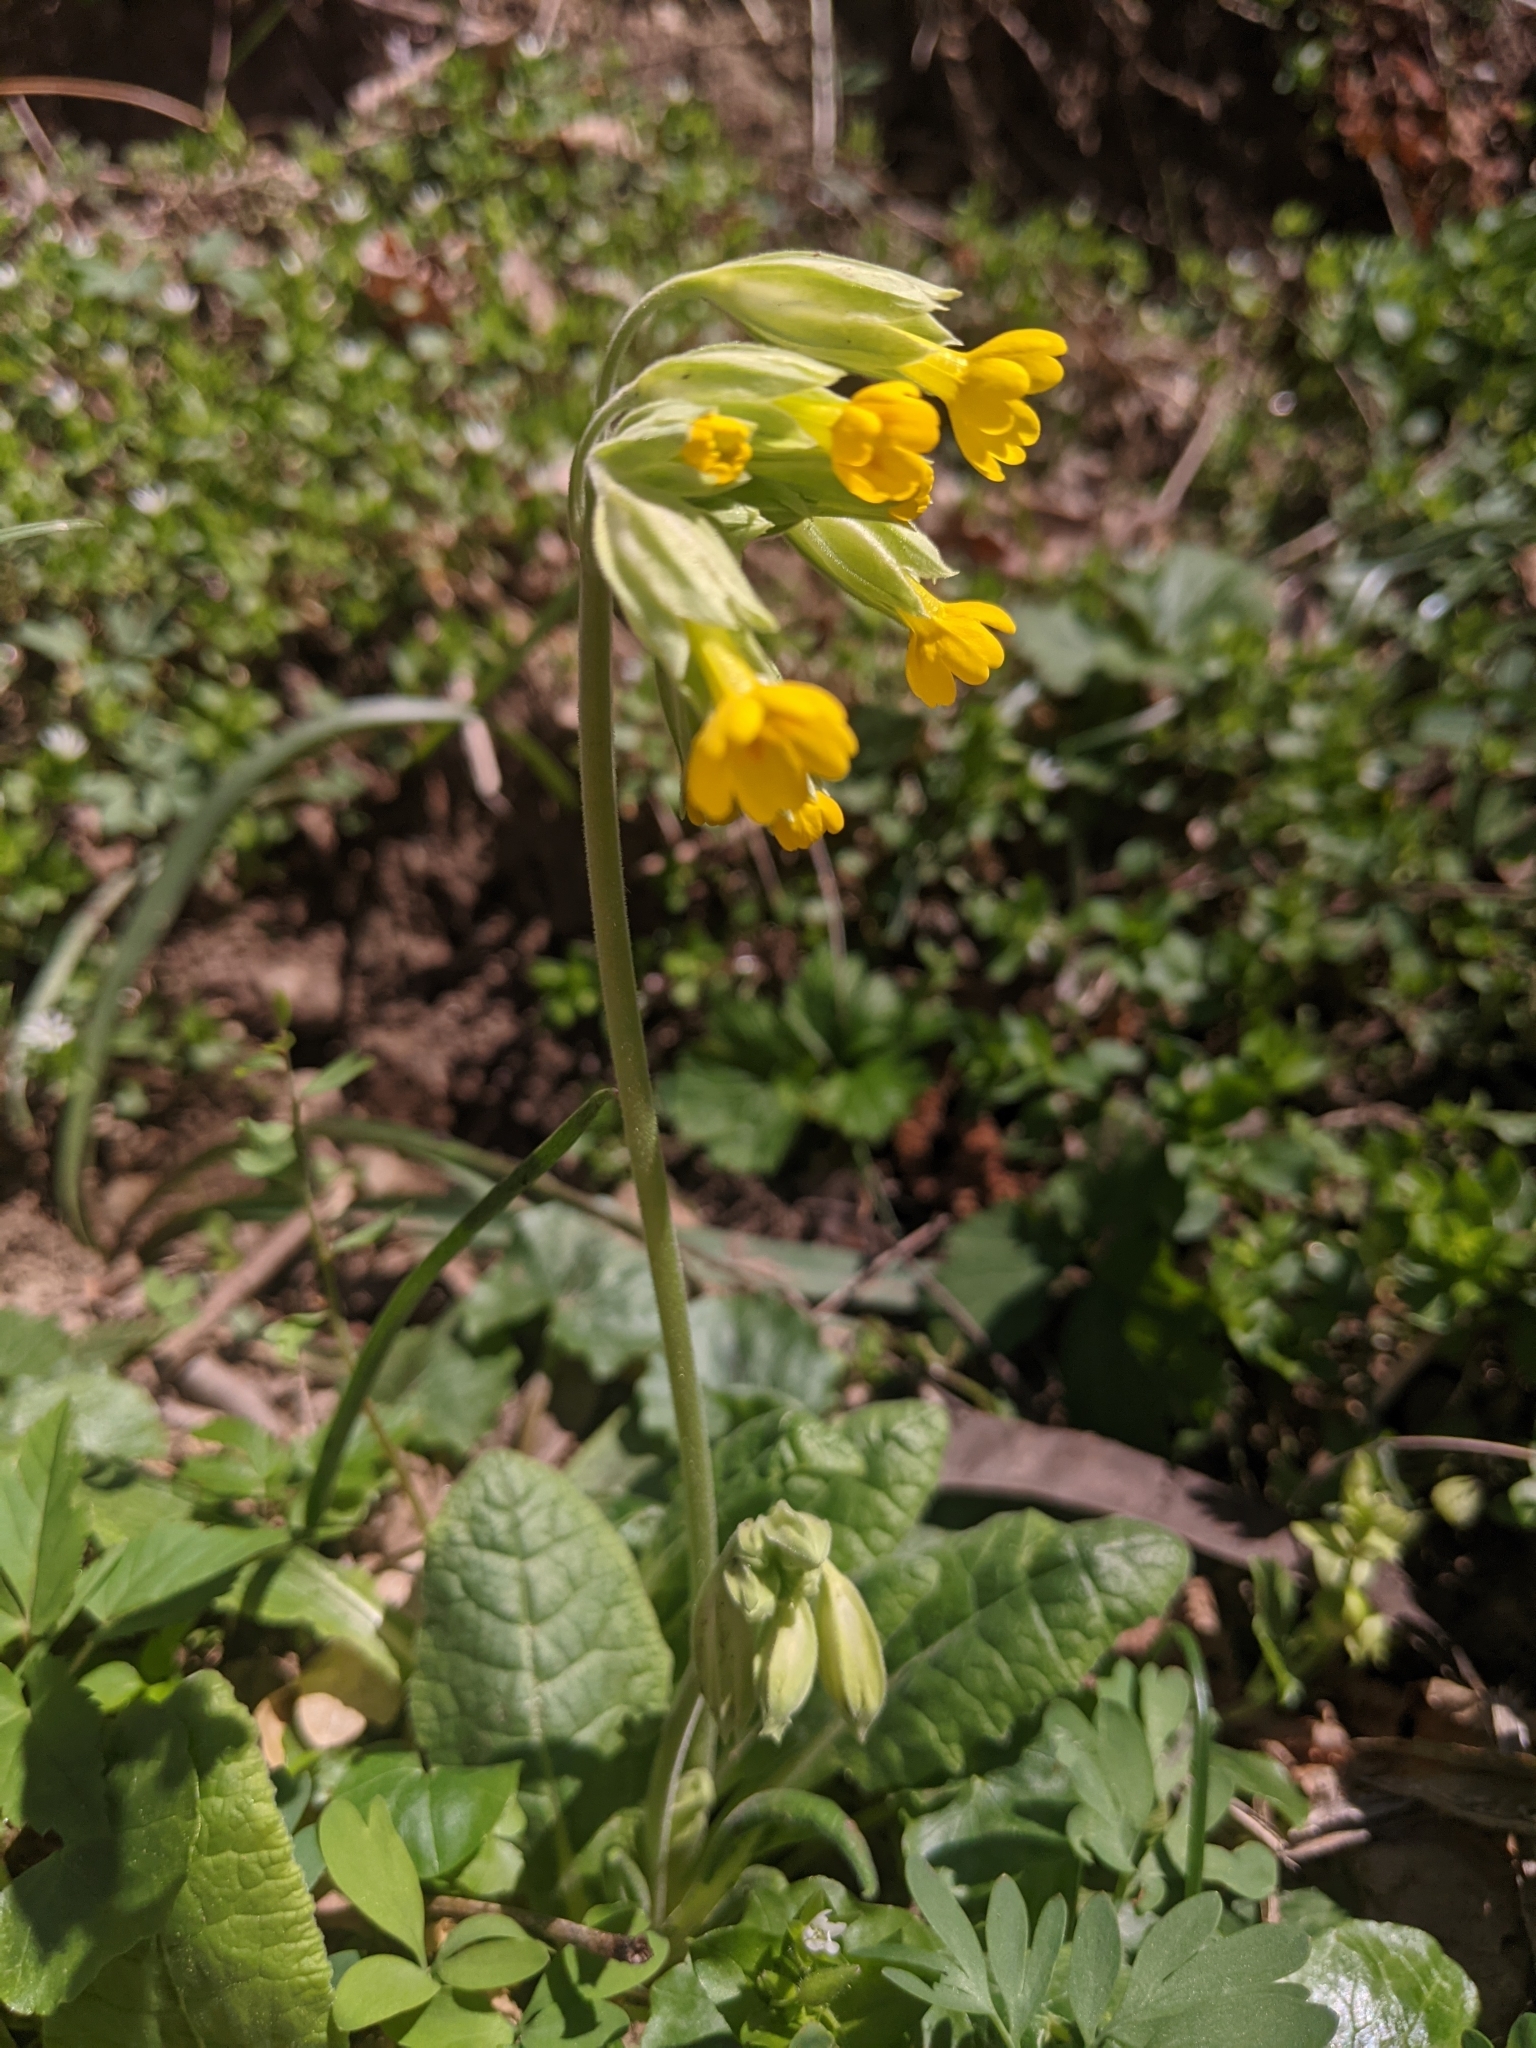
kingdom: Plantae
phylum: Tracheophyta
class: Magnoliopsida
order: Ericales
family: Primulaceae
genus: Primula
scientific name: Primula veris
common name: Cowslip
